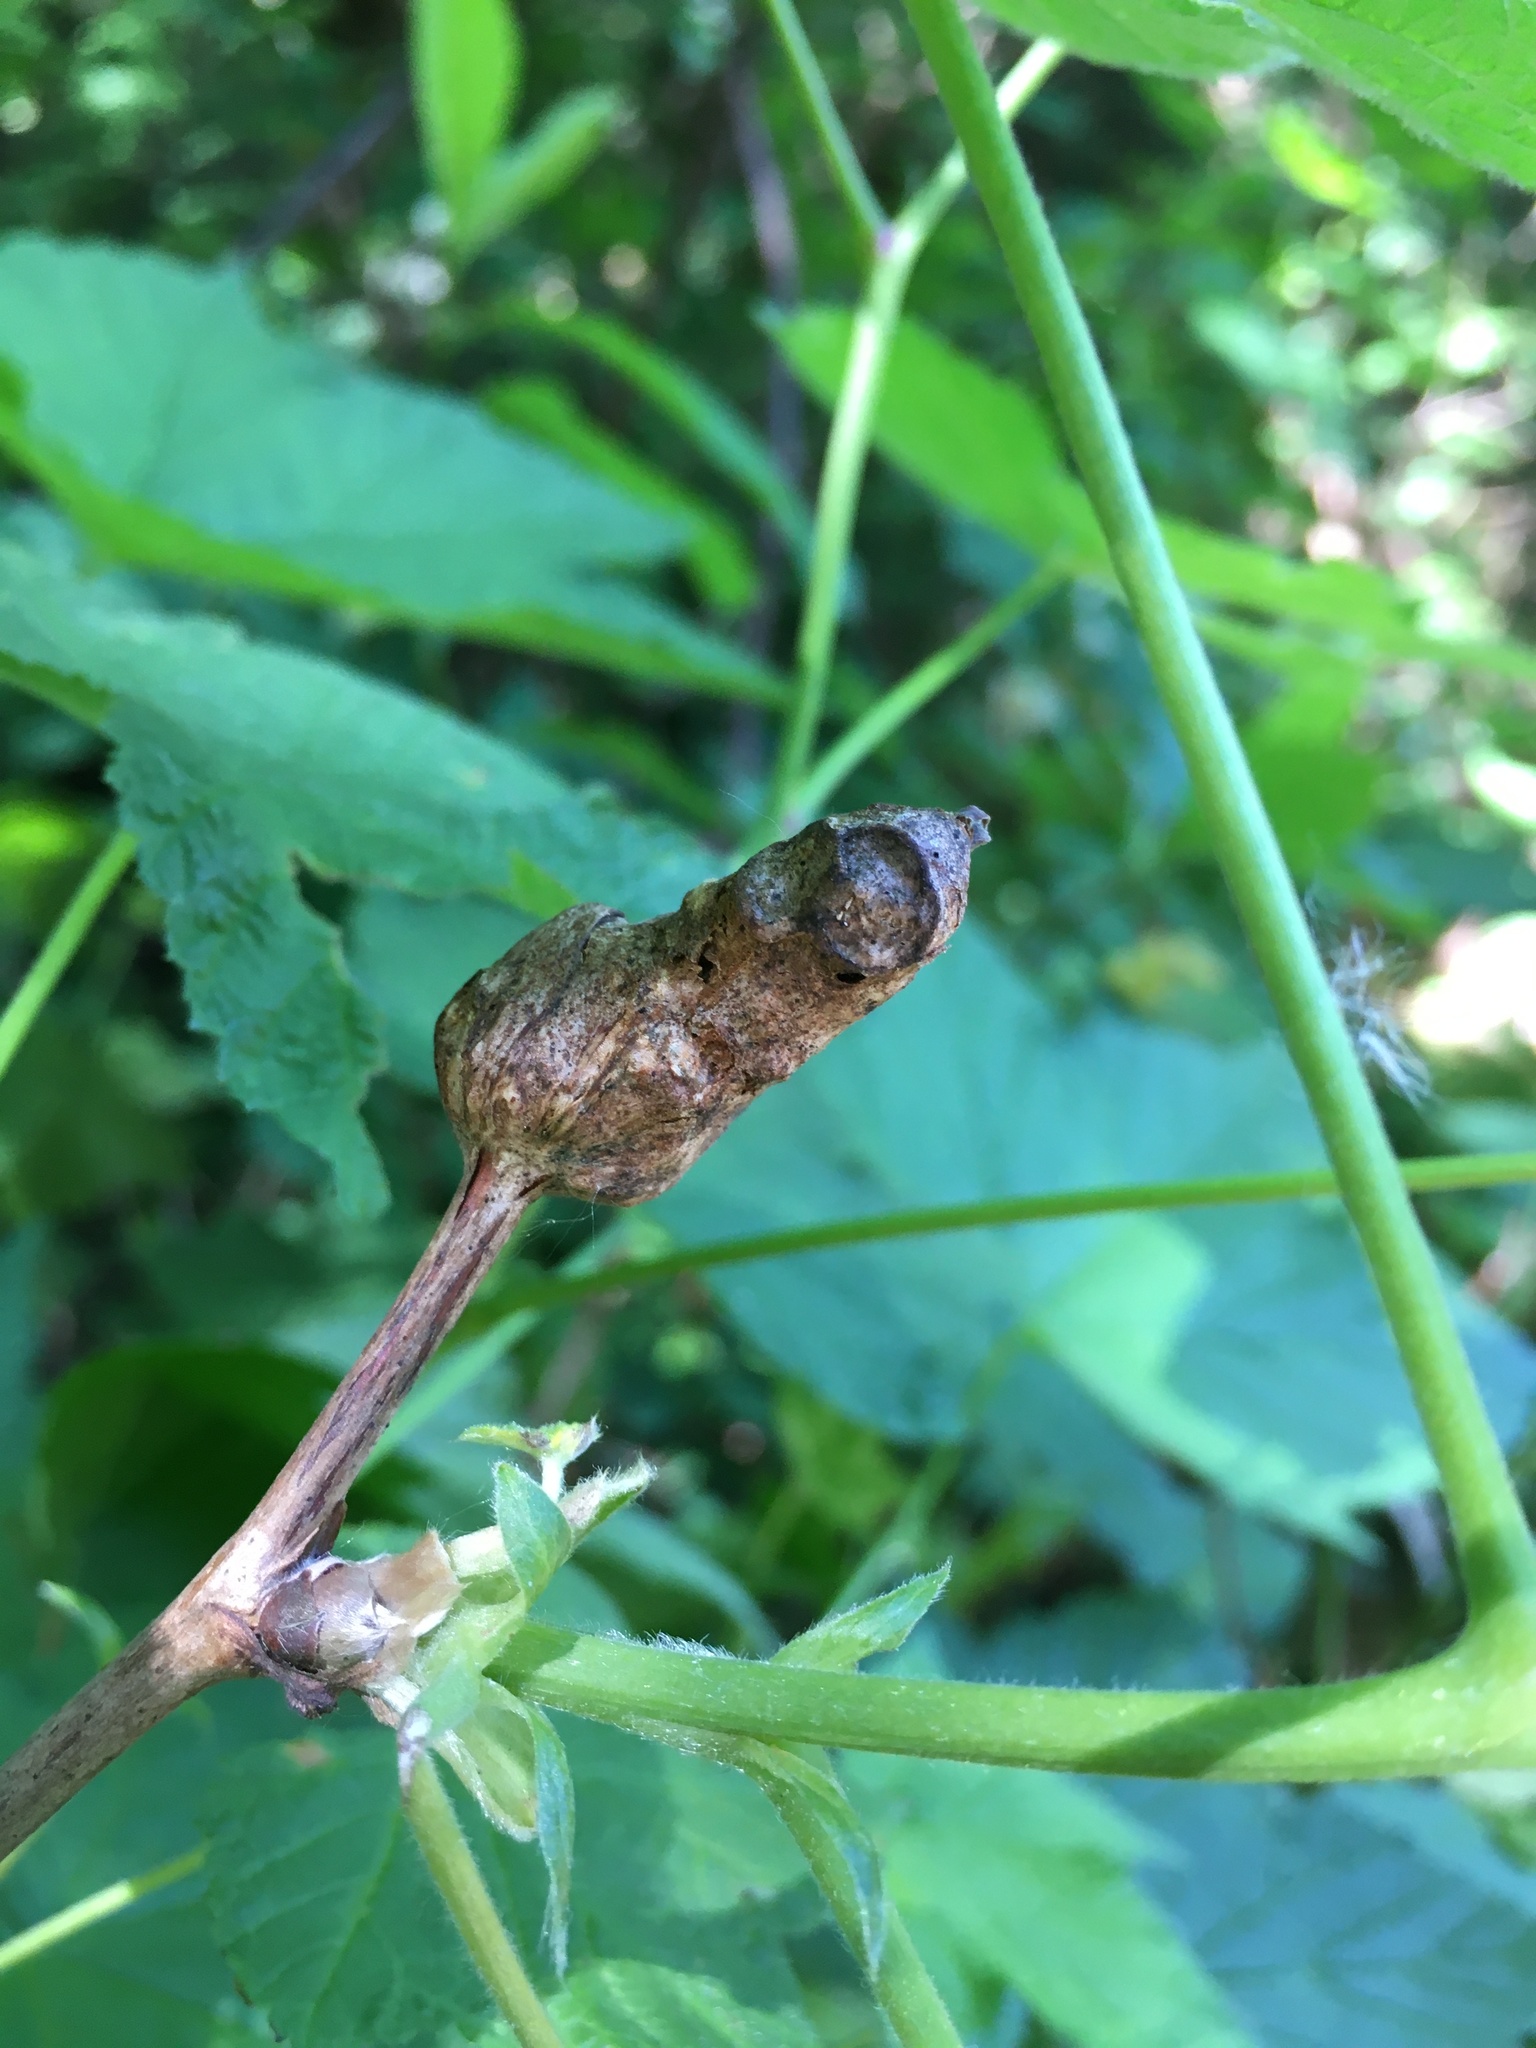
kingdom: Animalia
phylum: Arthropoda
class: Insecta
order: Hymenoptera
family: Cynipidae
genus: Diastrophus
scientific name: Diastrophus
